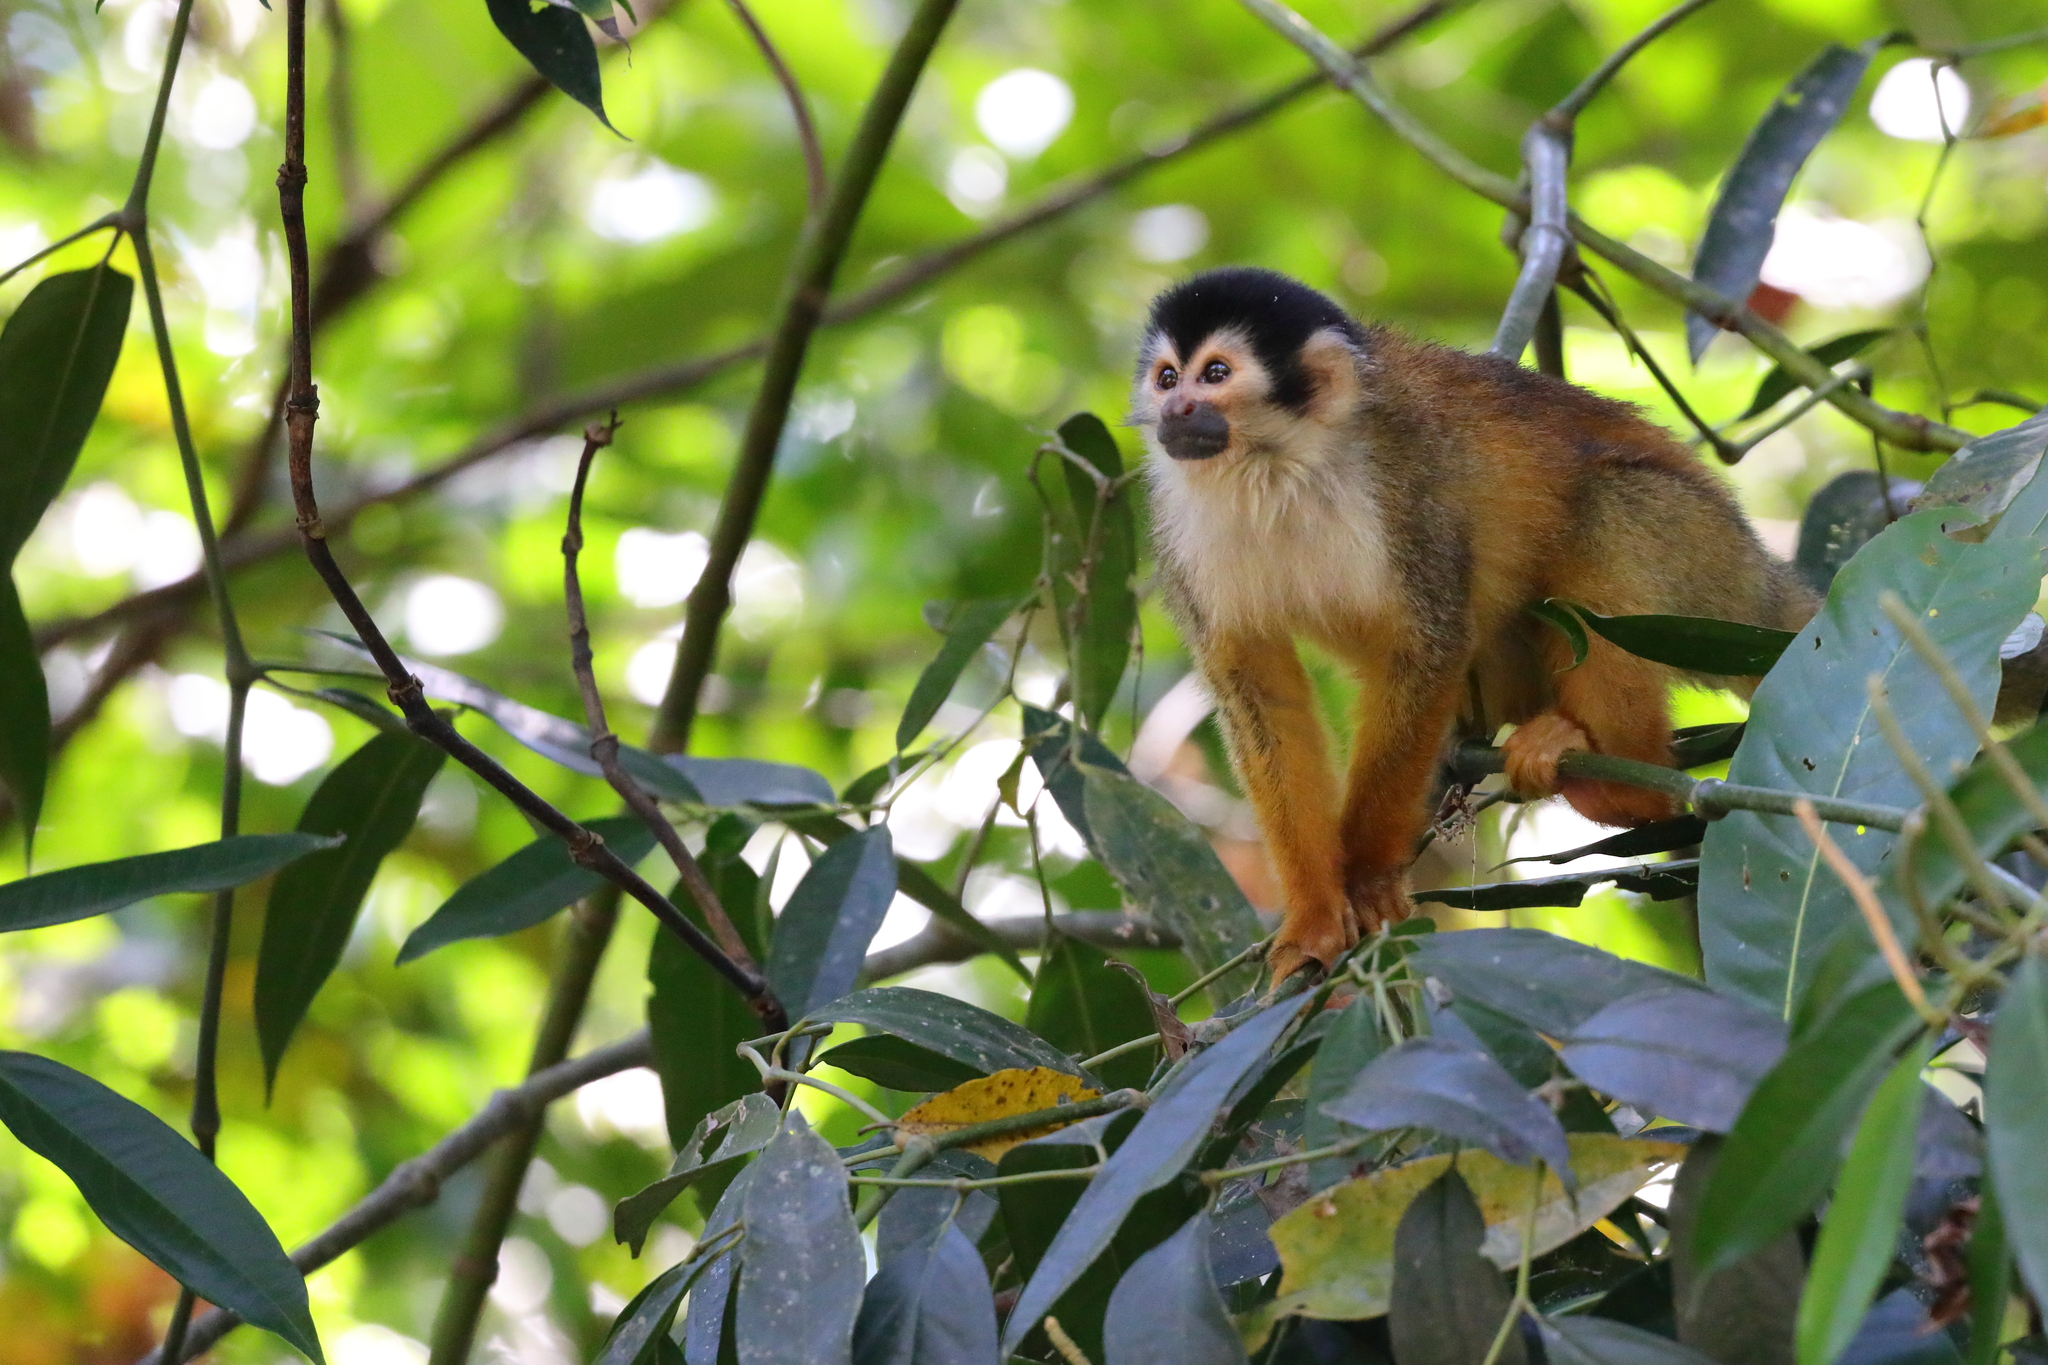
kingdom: Animalia
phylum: Chordata
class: Mammalia
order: Primates
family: Cebidae
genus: Saimiri
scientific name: Saimiri oerstedii
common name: Central american squirrel monkey
